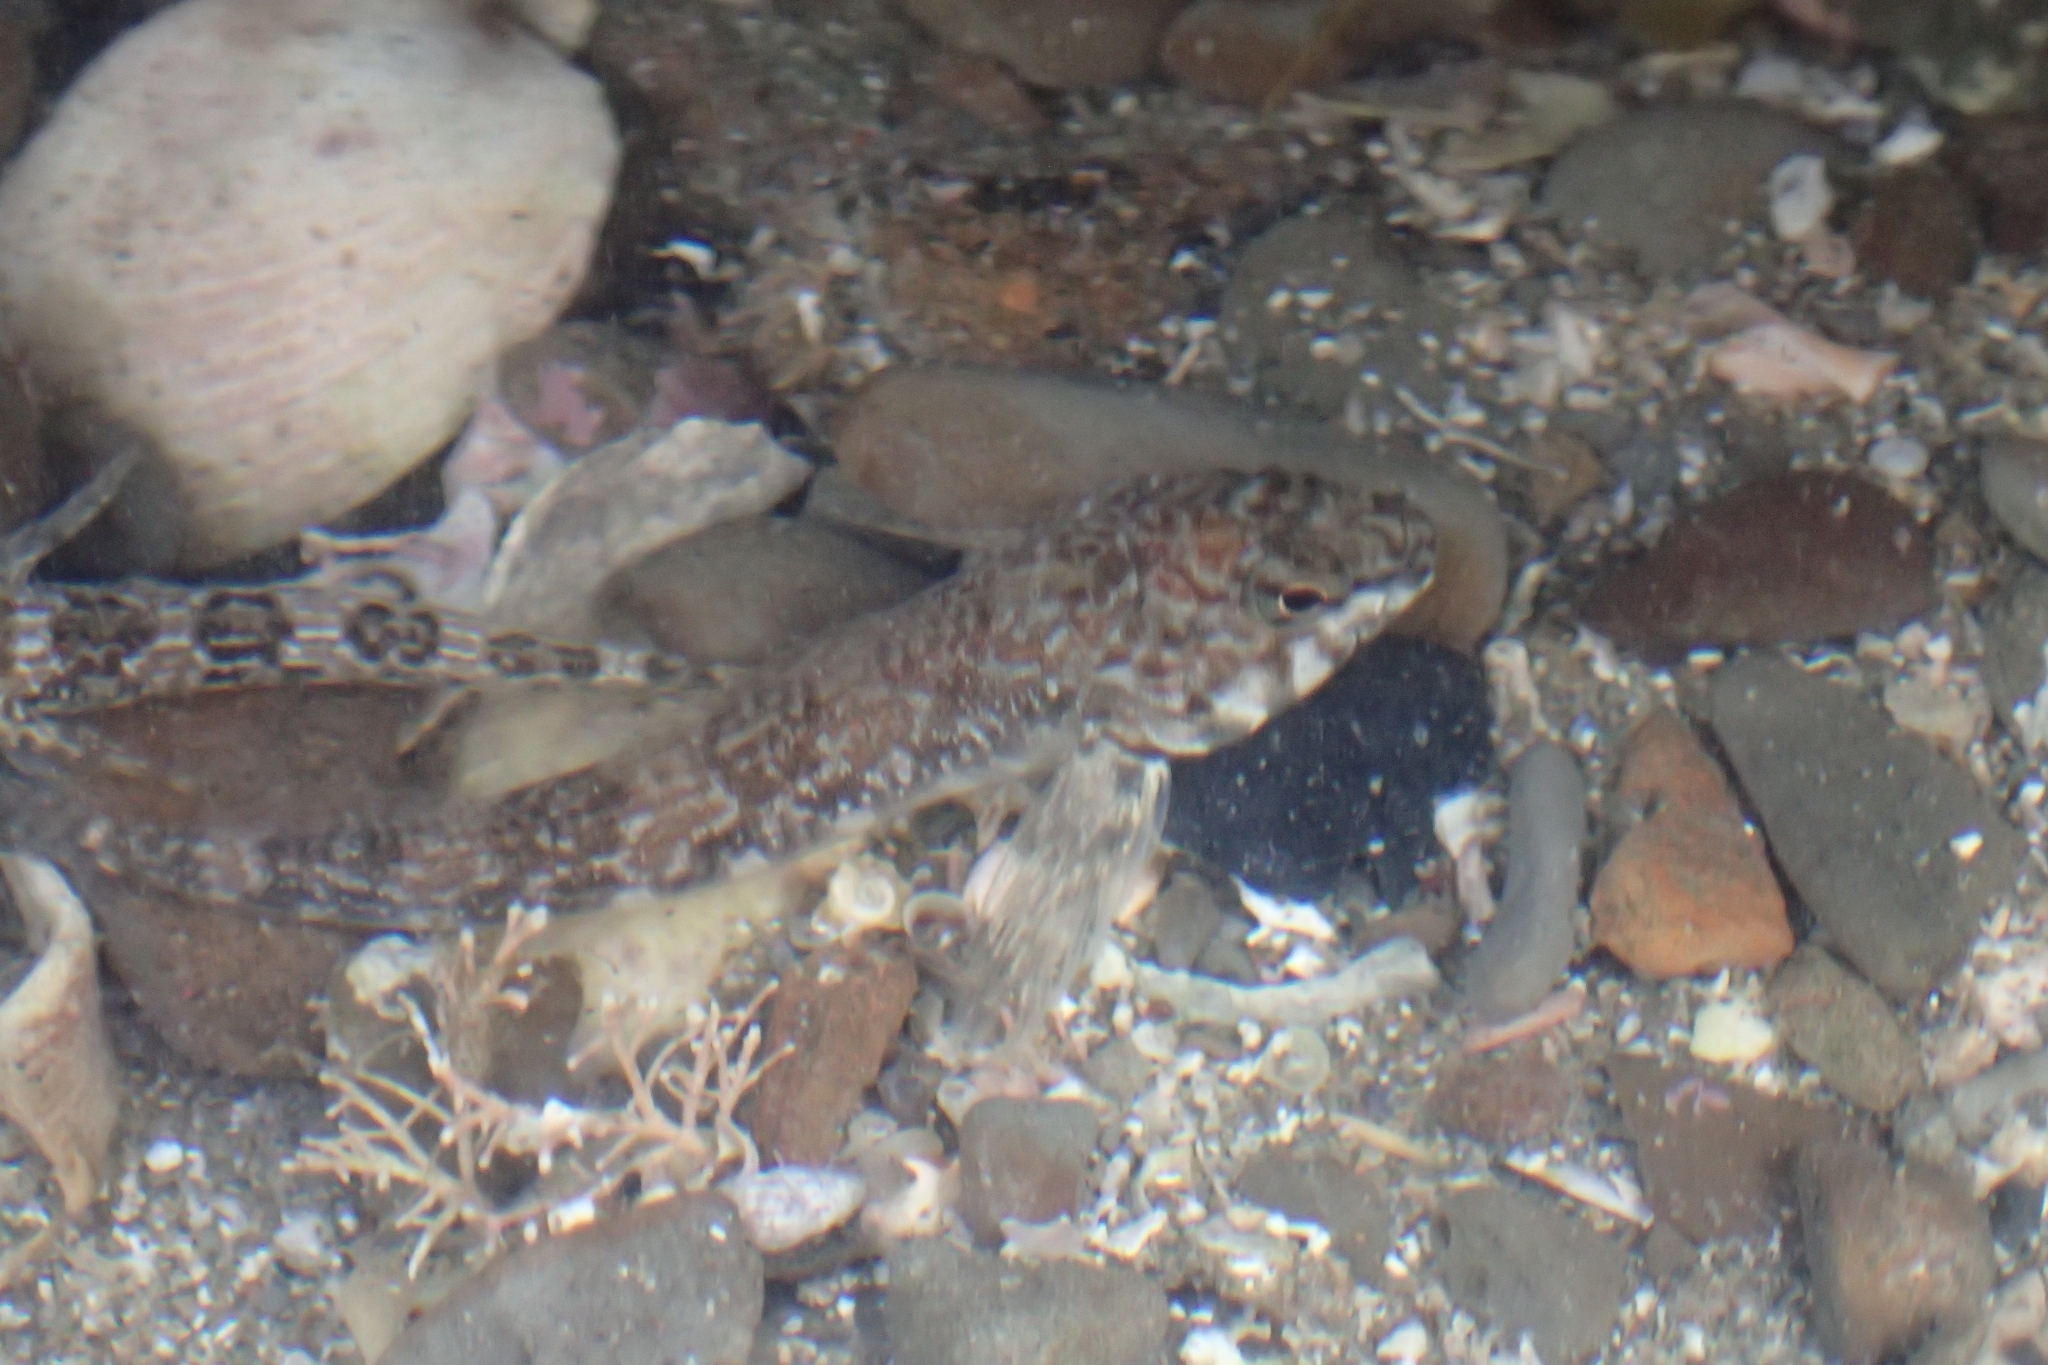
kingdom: Animalia
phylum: Chordata
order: Perciformes
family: Tripterygiidae
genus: Bellapiscis
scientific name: Bellapiscis medius
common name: Twister
